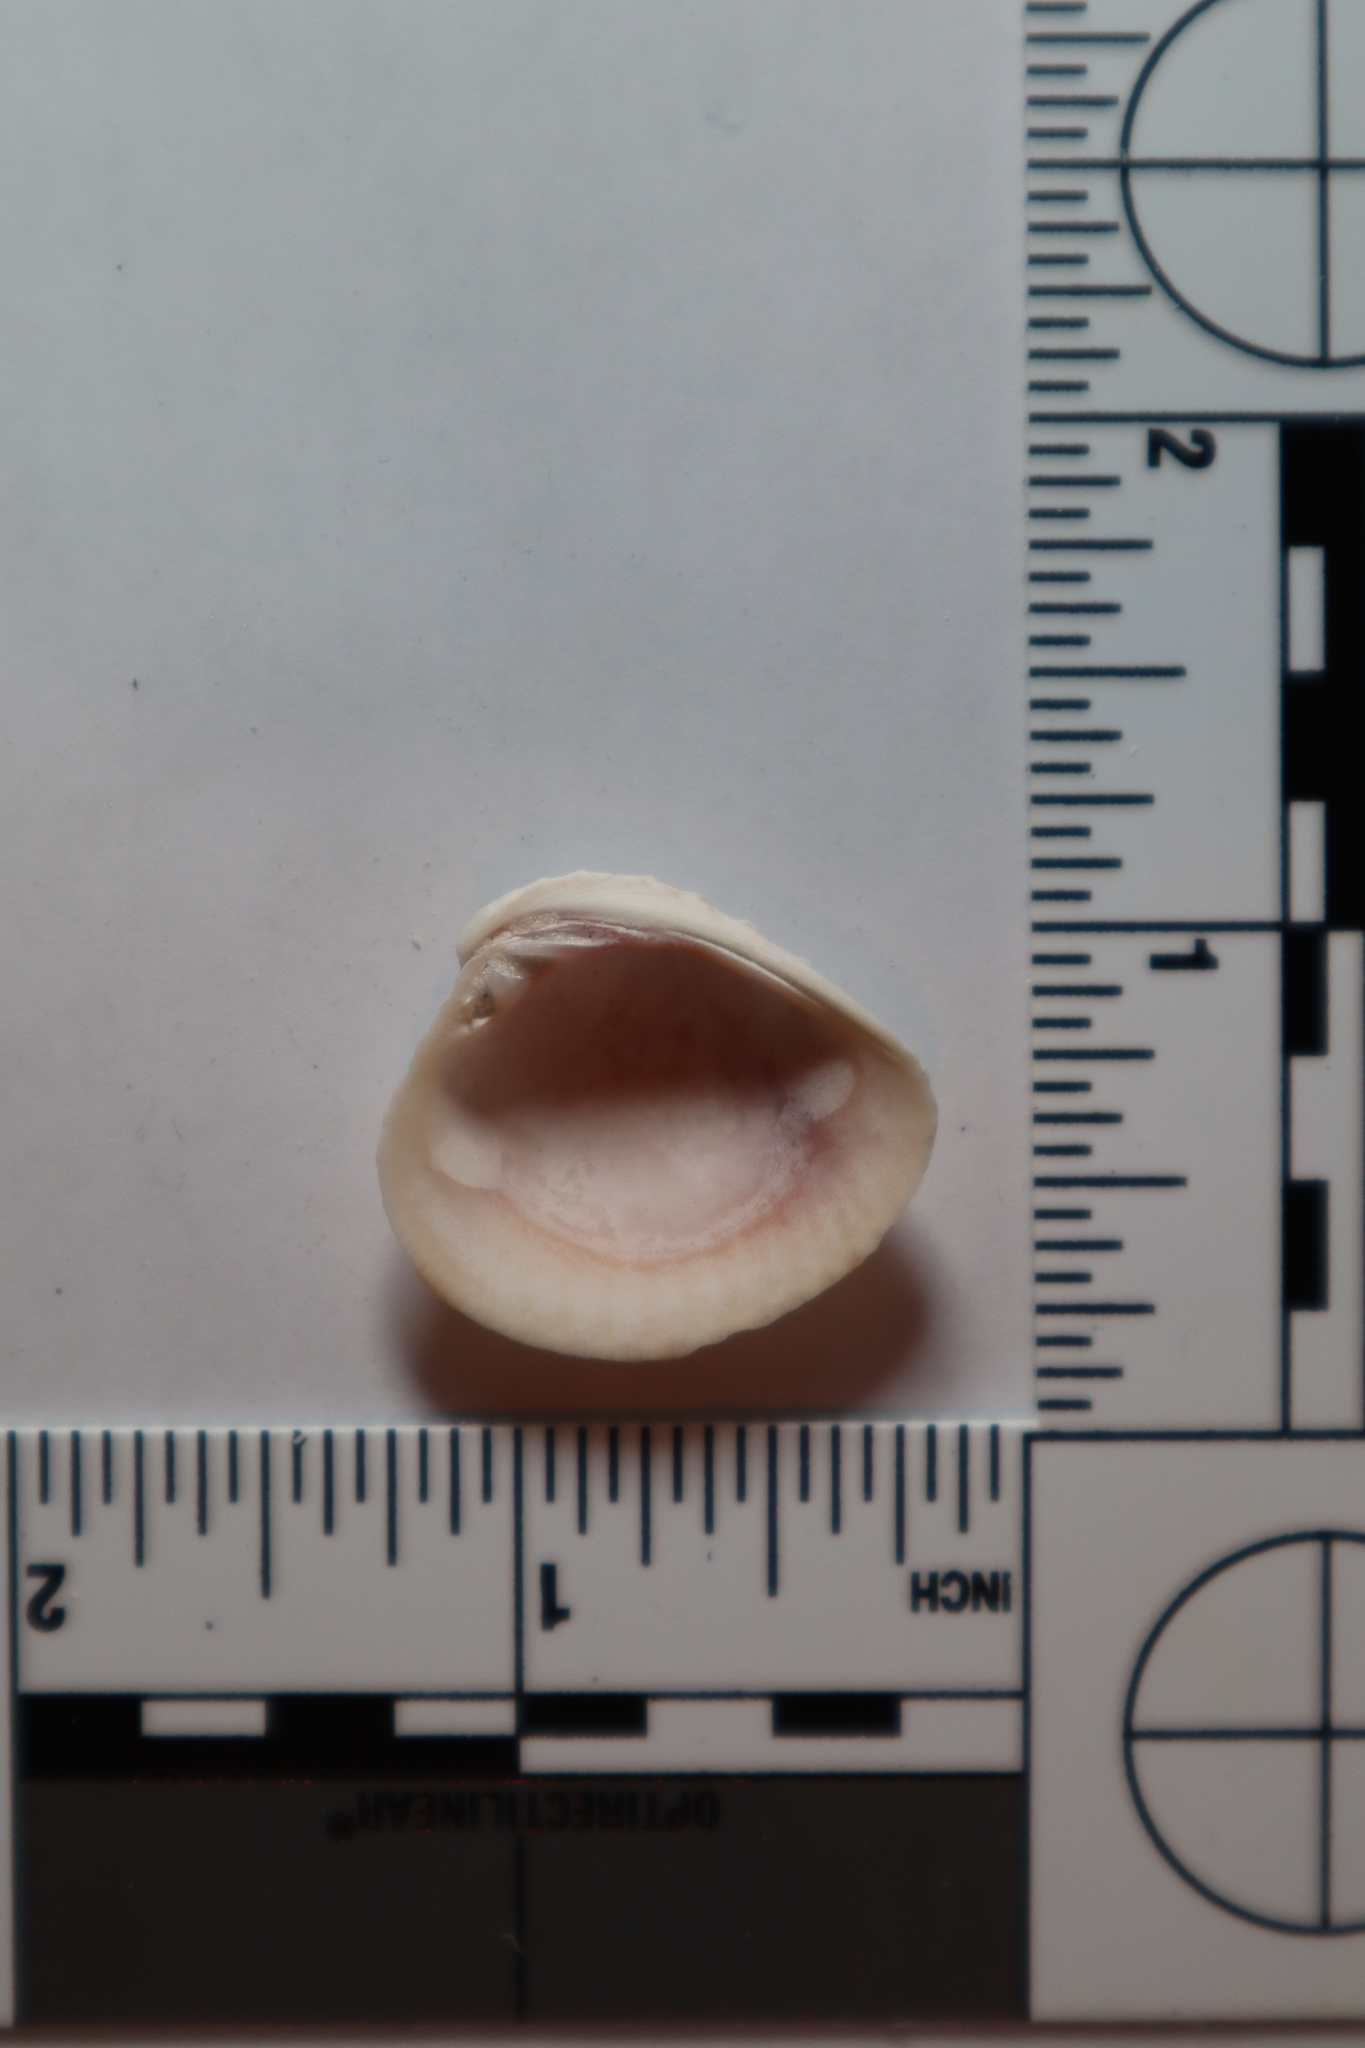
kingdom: Animalia
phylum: Mollusca
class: Bivalvia
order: Venerida
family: Veneridae
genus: Chione
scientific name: Chione elevata
